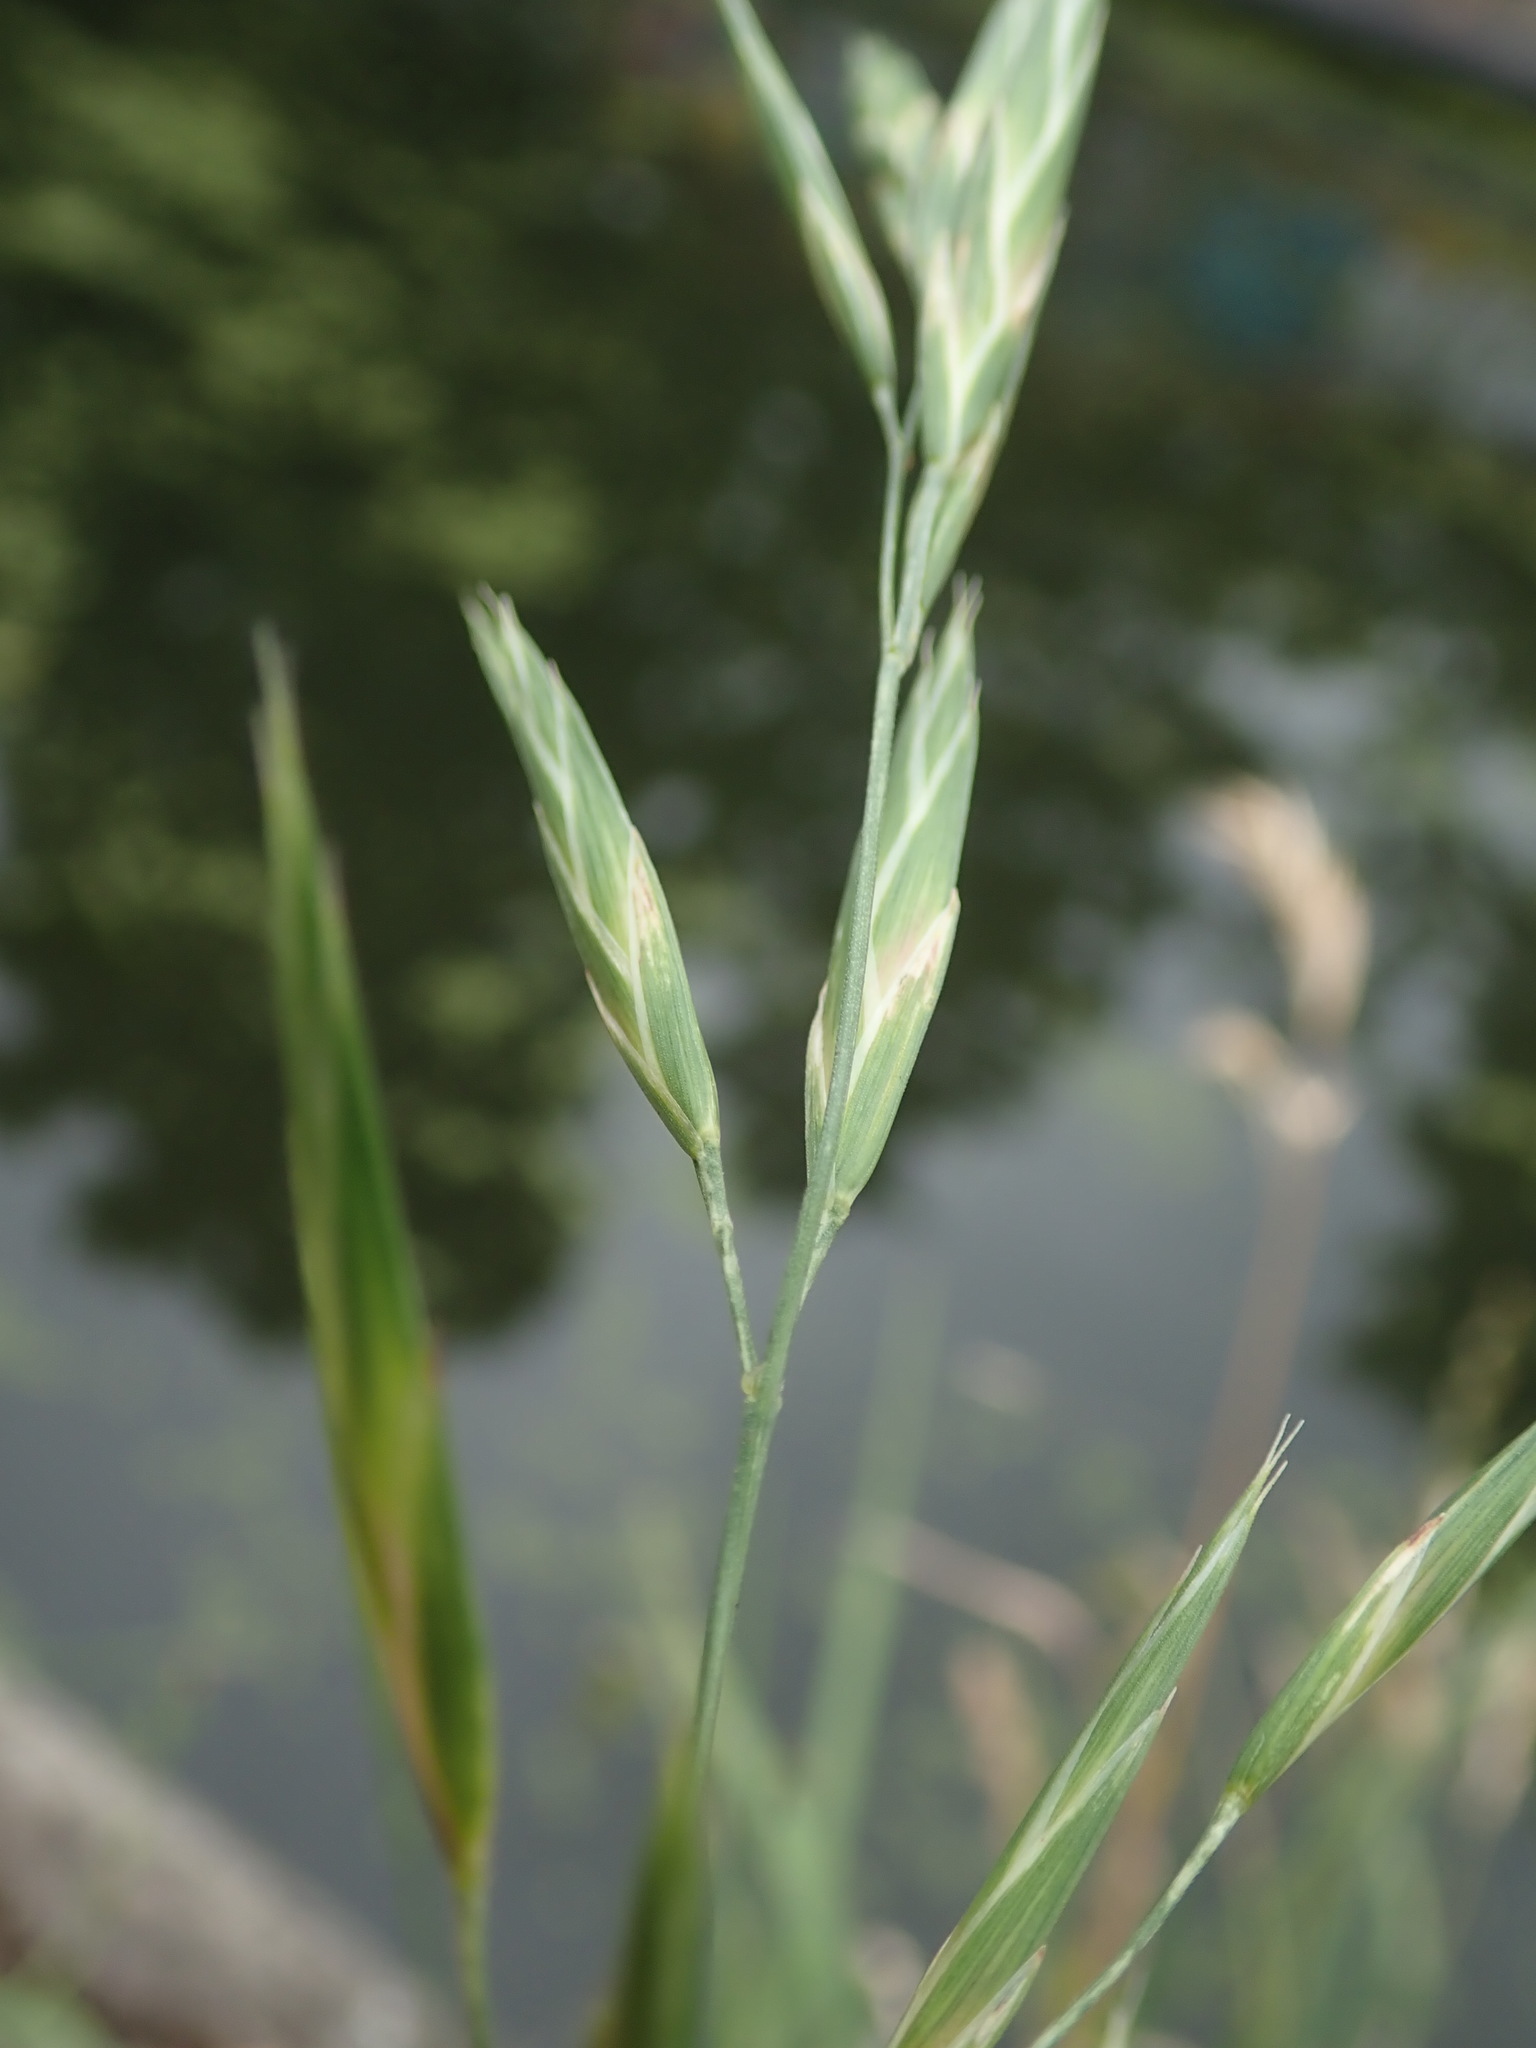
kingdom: Plantae
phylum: Tracheophyta
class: Liliopsida
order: Poales
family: Poaceae
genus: Bromus
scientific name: Bromus catharticus
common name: Rescuegrass
